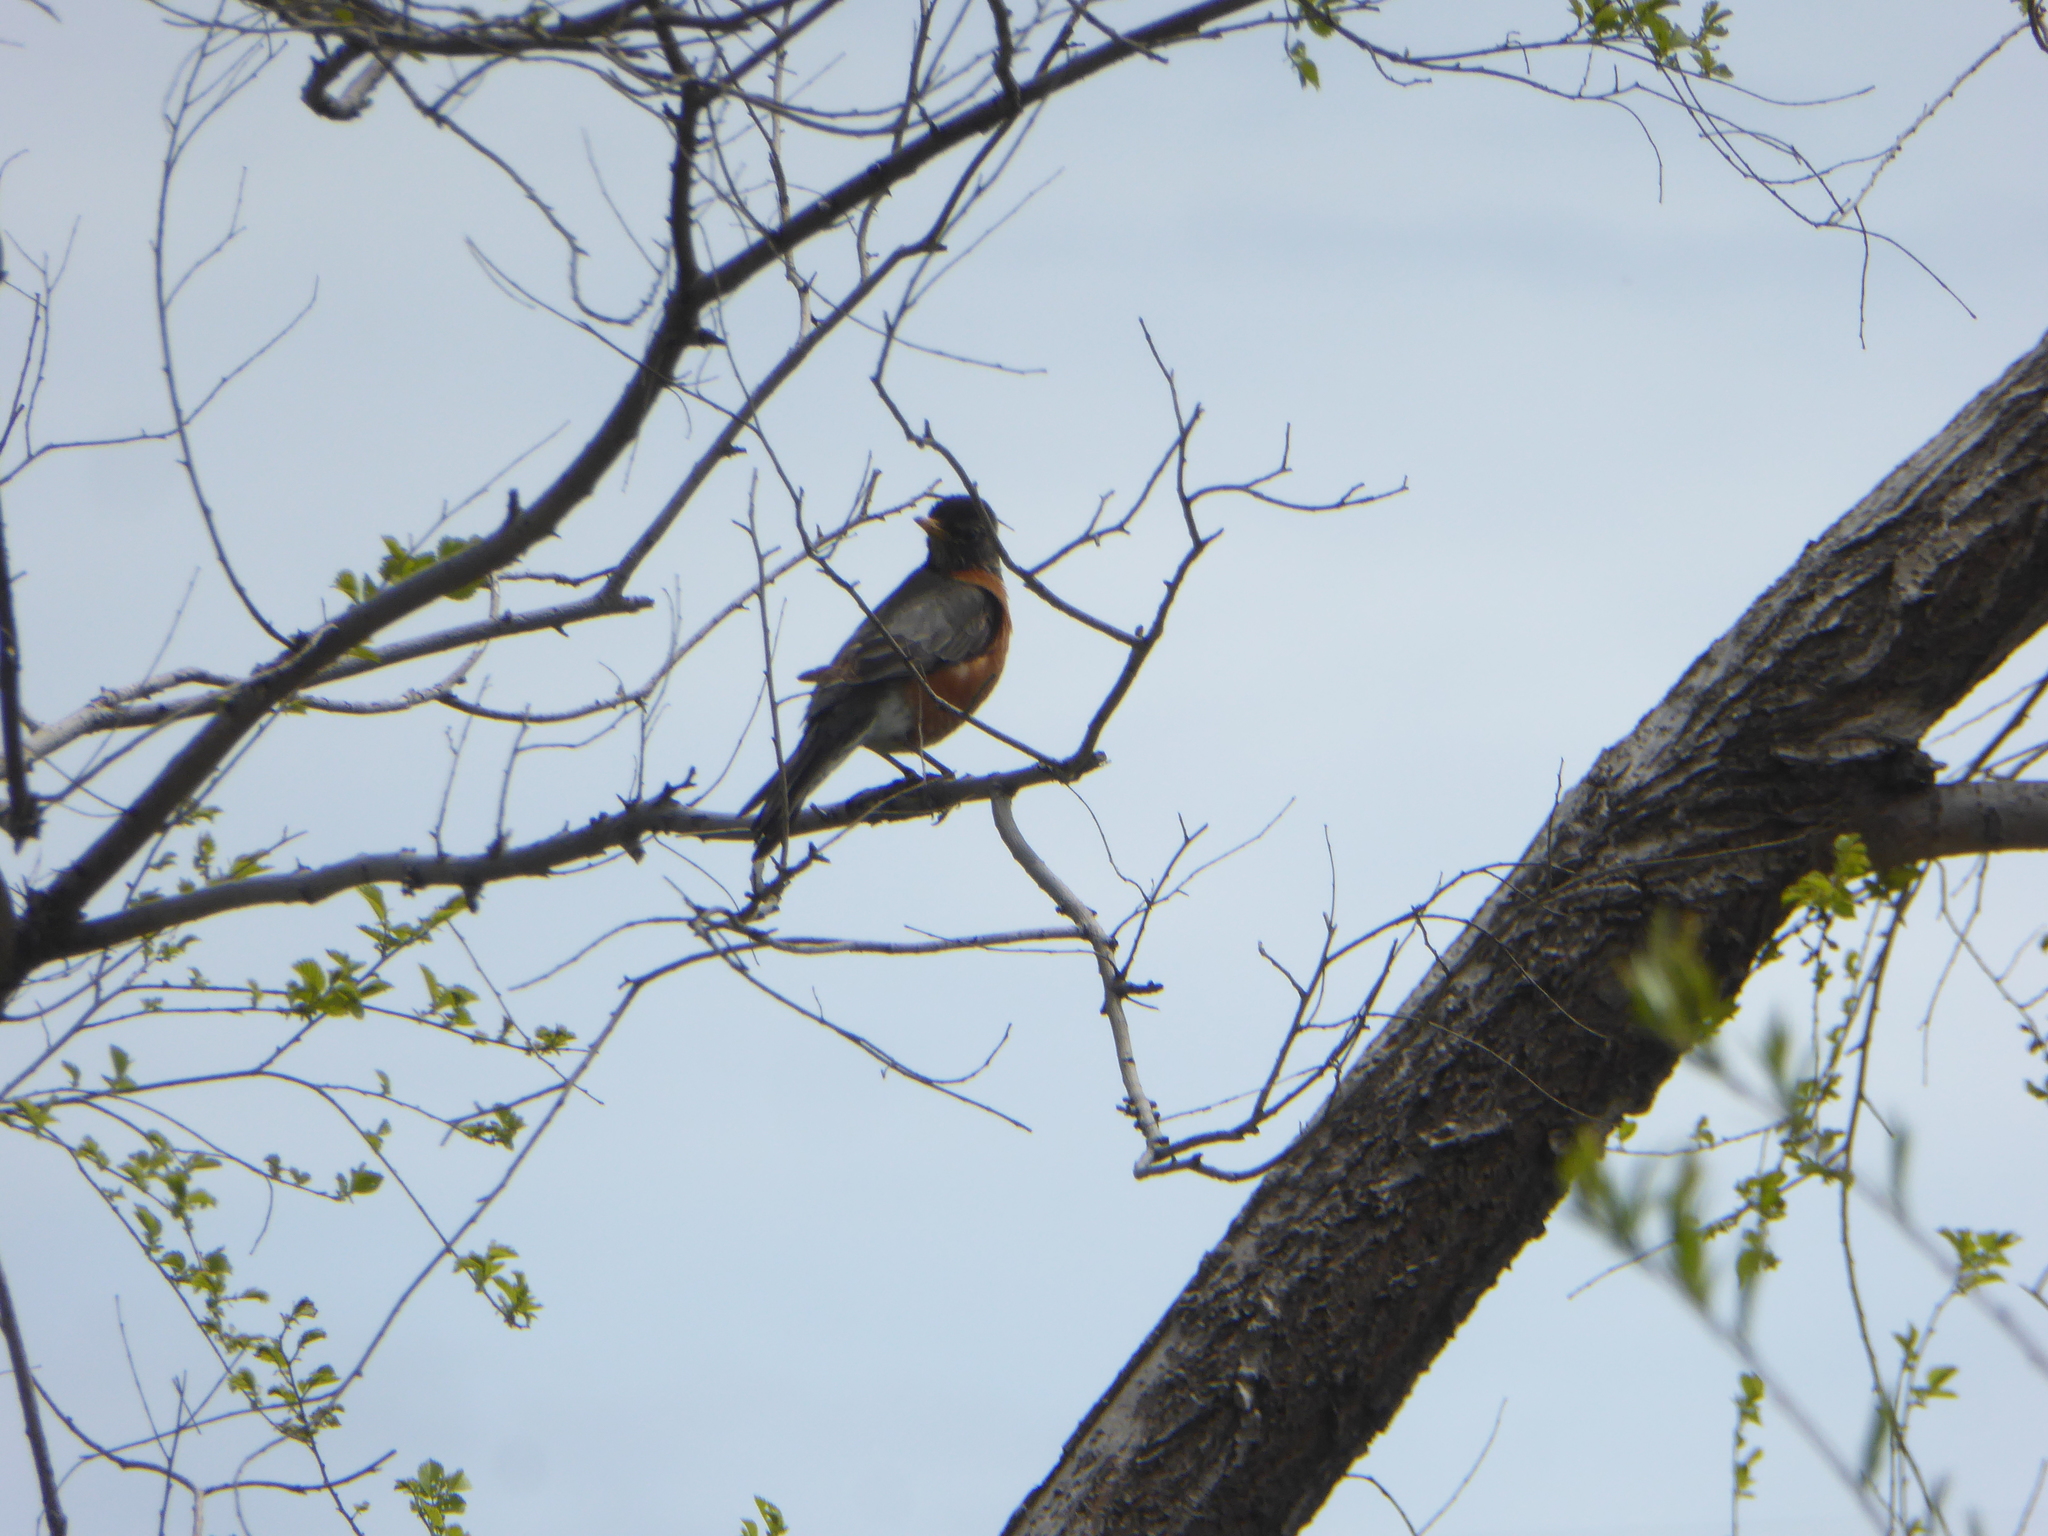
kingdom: Animalia
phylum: Chordata
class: Aves
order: Passeriformes
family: Turdidae
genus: Turdus
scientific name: Turdus migratorius
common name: American robin
